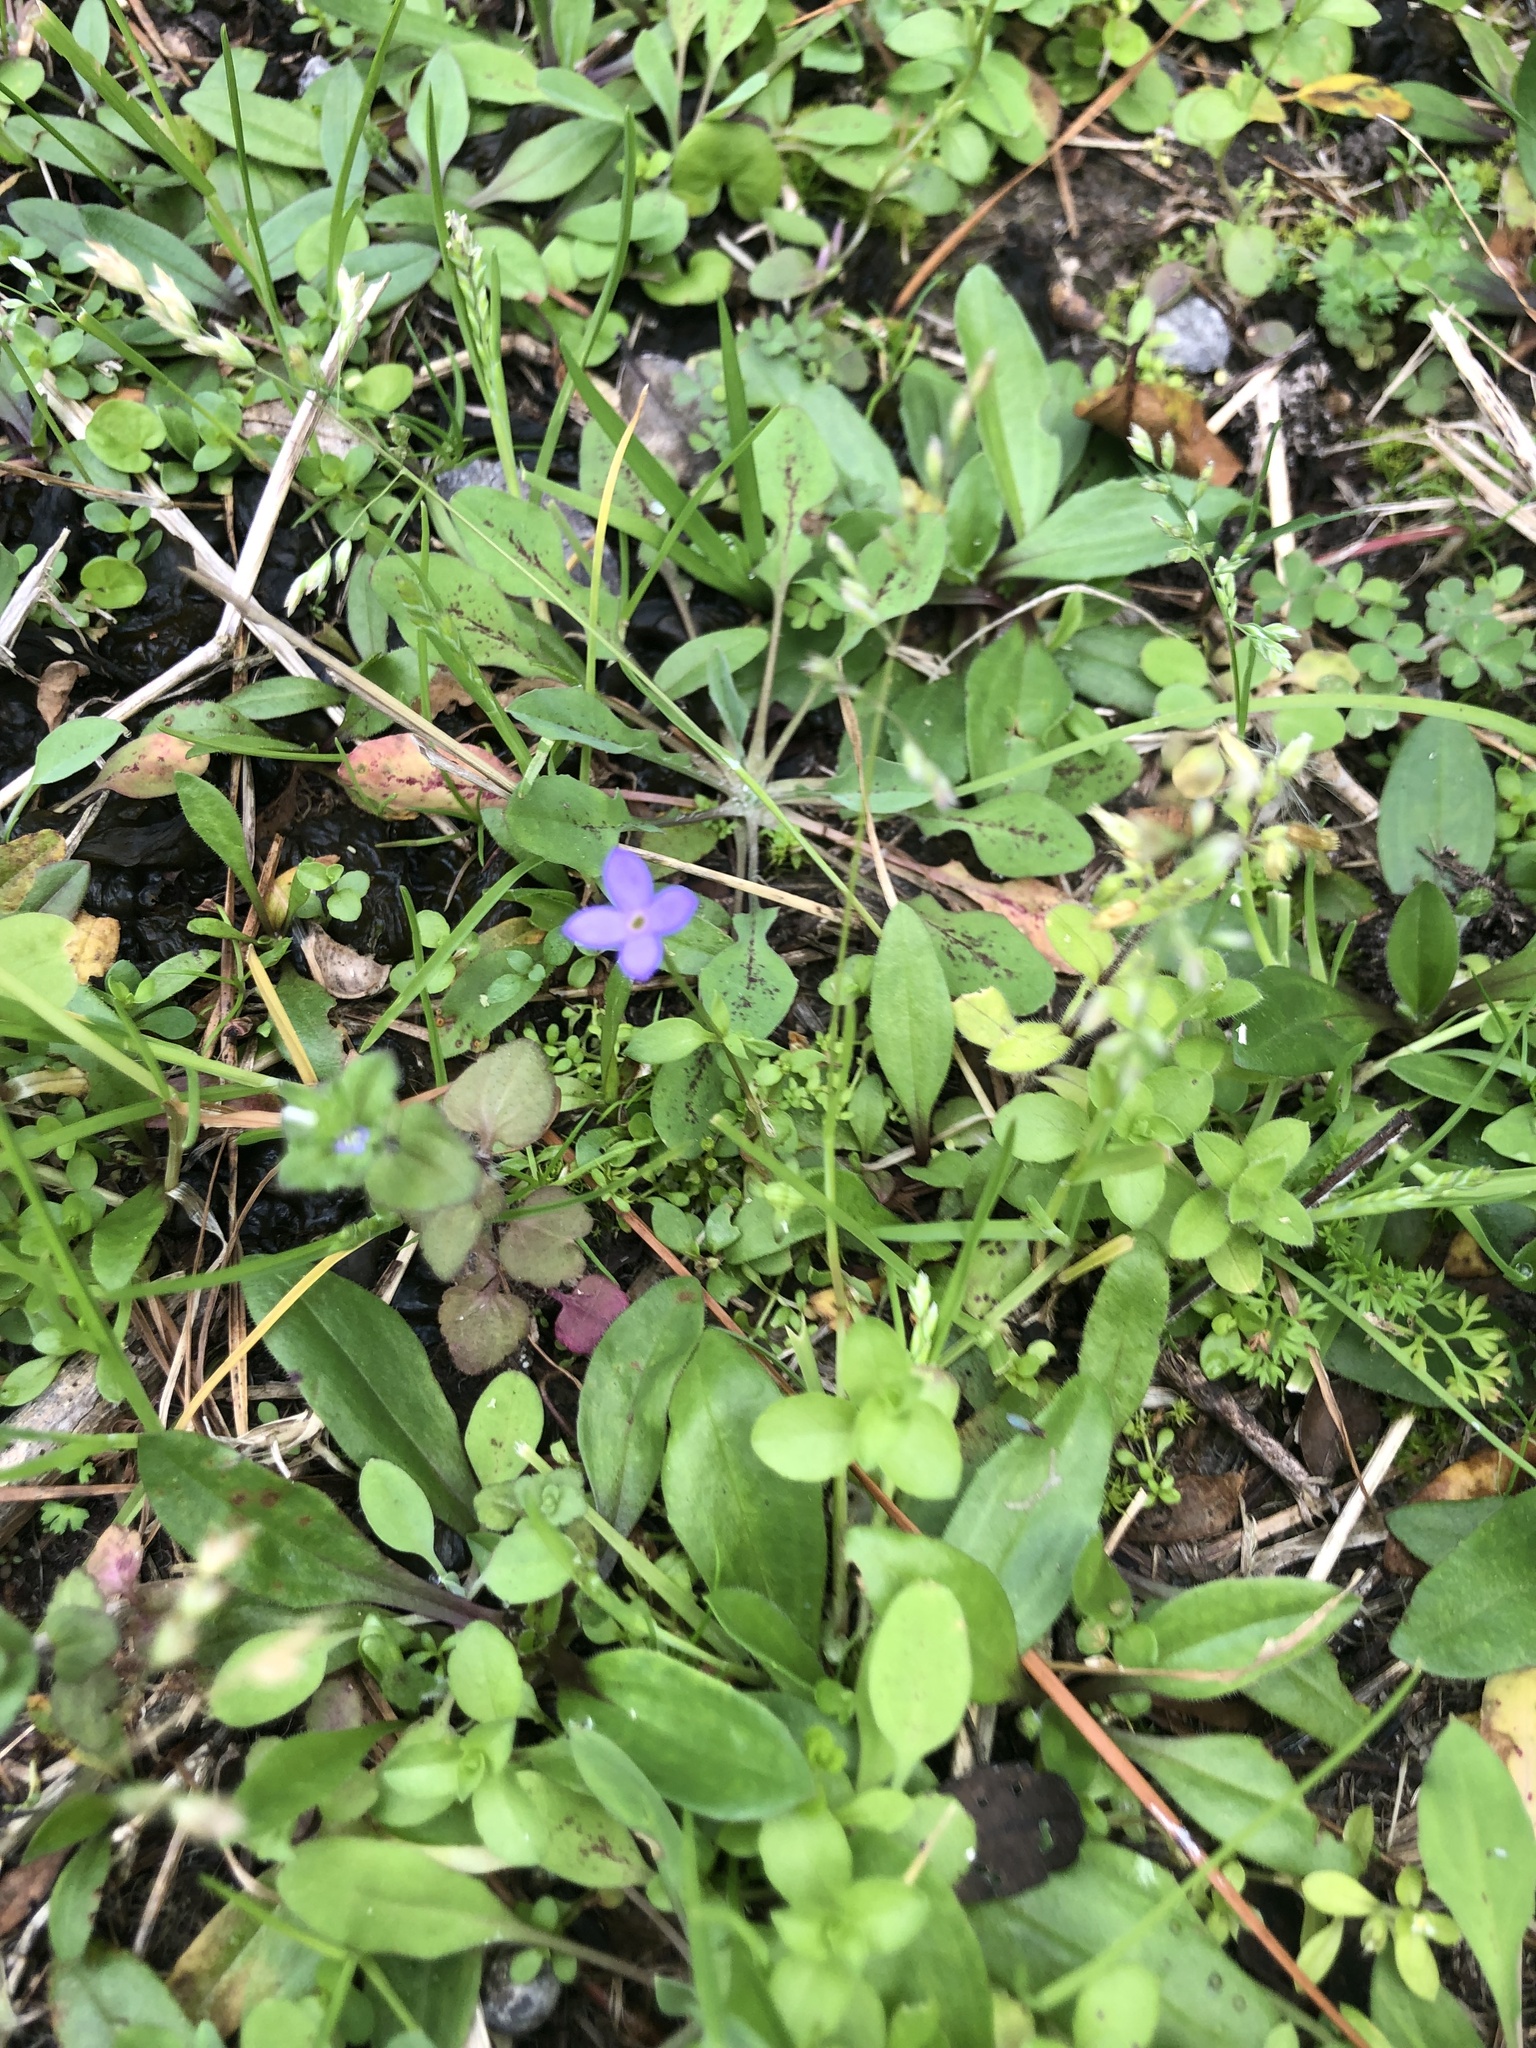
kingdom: Plantae
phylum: Tracheophyta
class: Magnoliopsida
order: Gentianales
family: Rubiaceae
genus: Houstonia
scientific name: Houstonia pusilla
